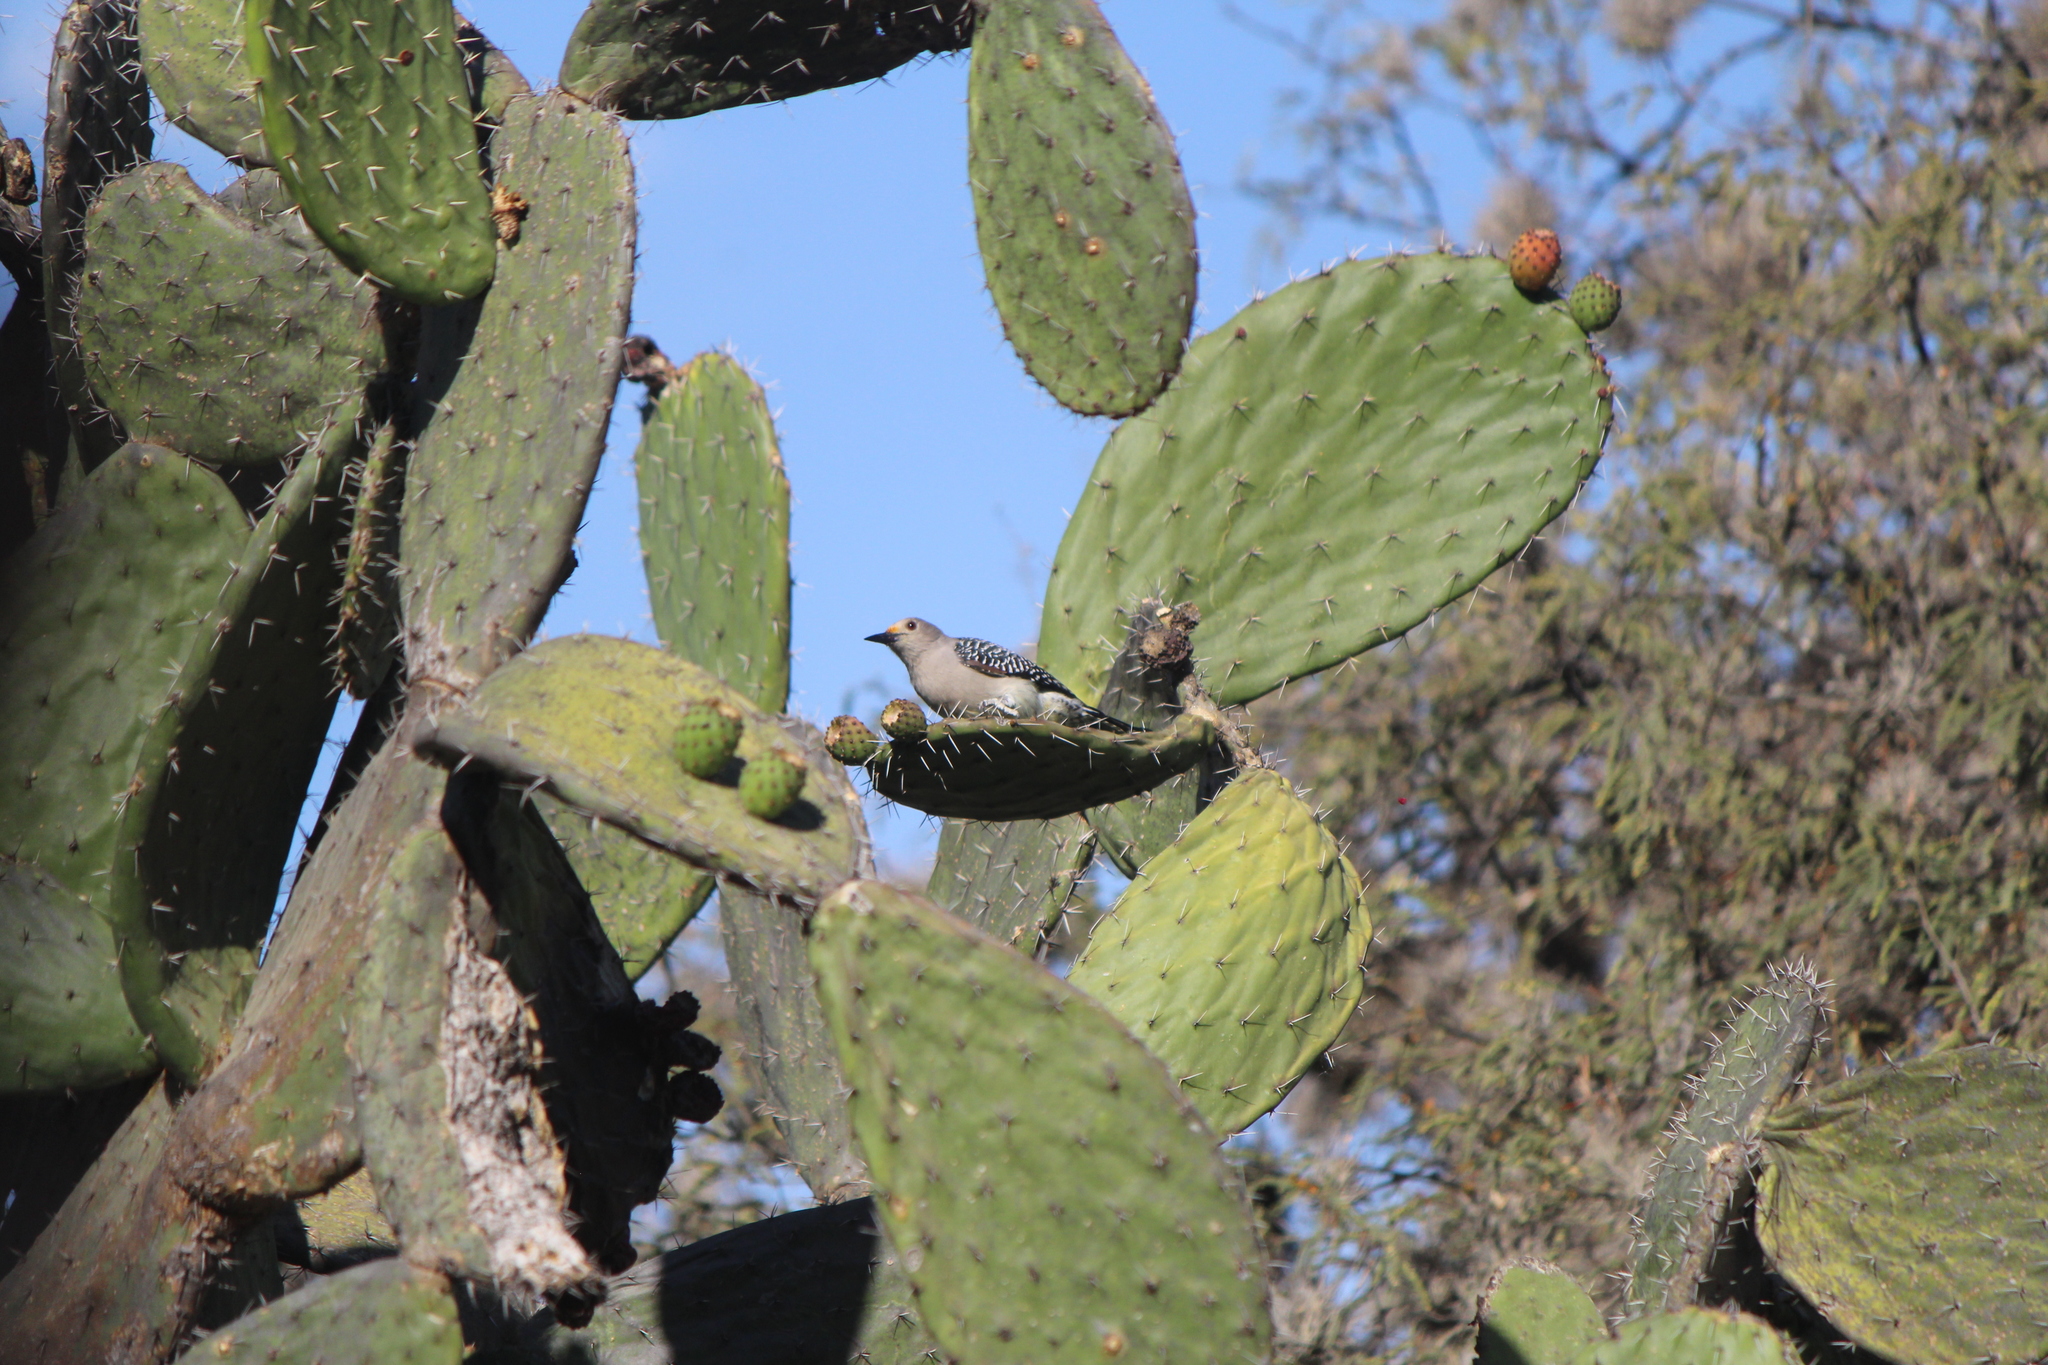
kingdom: Animalia
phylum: Chordata
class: Aves
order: Piciformes
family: Picidae
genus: Melanerpes
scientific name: Melanerpes aurifrons
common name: Golden-fronted woodpecker
